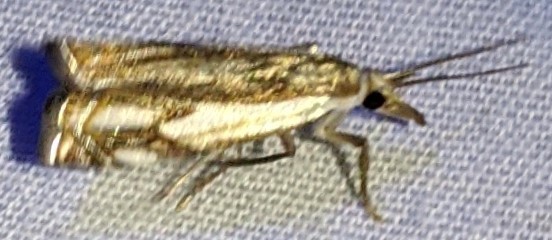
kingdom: Animalia
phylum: Arthropoda
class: Insecta
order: Lepidoptera
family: Crambidae
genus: Crambus
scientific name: Crambus agitatellus
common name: Double-banded grass-veneer
